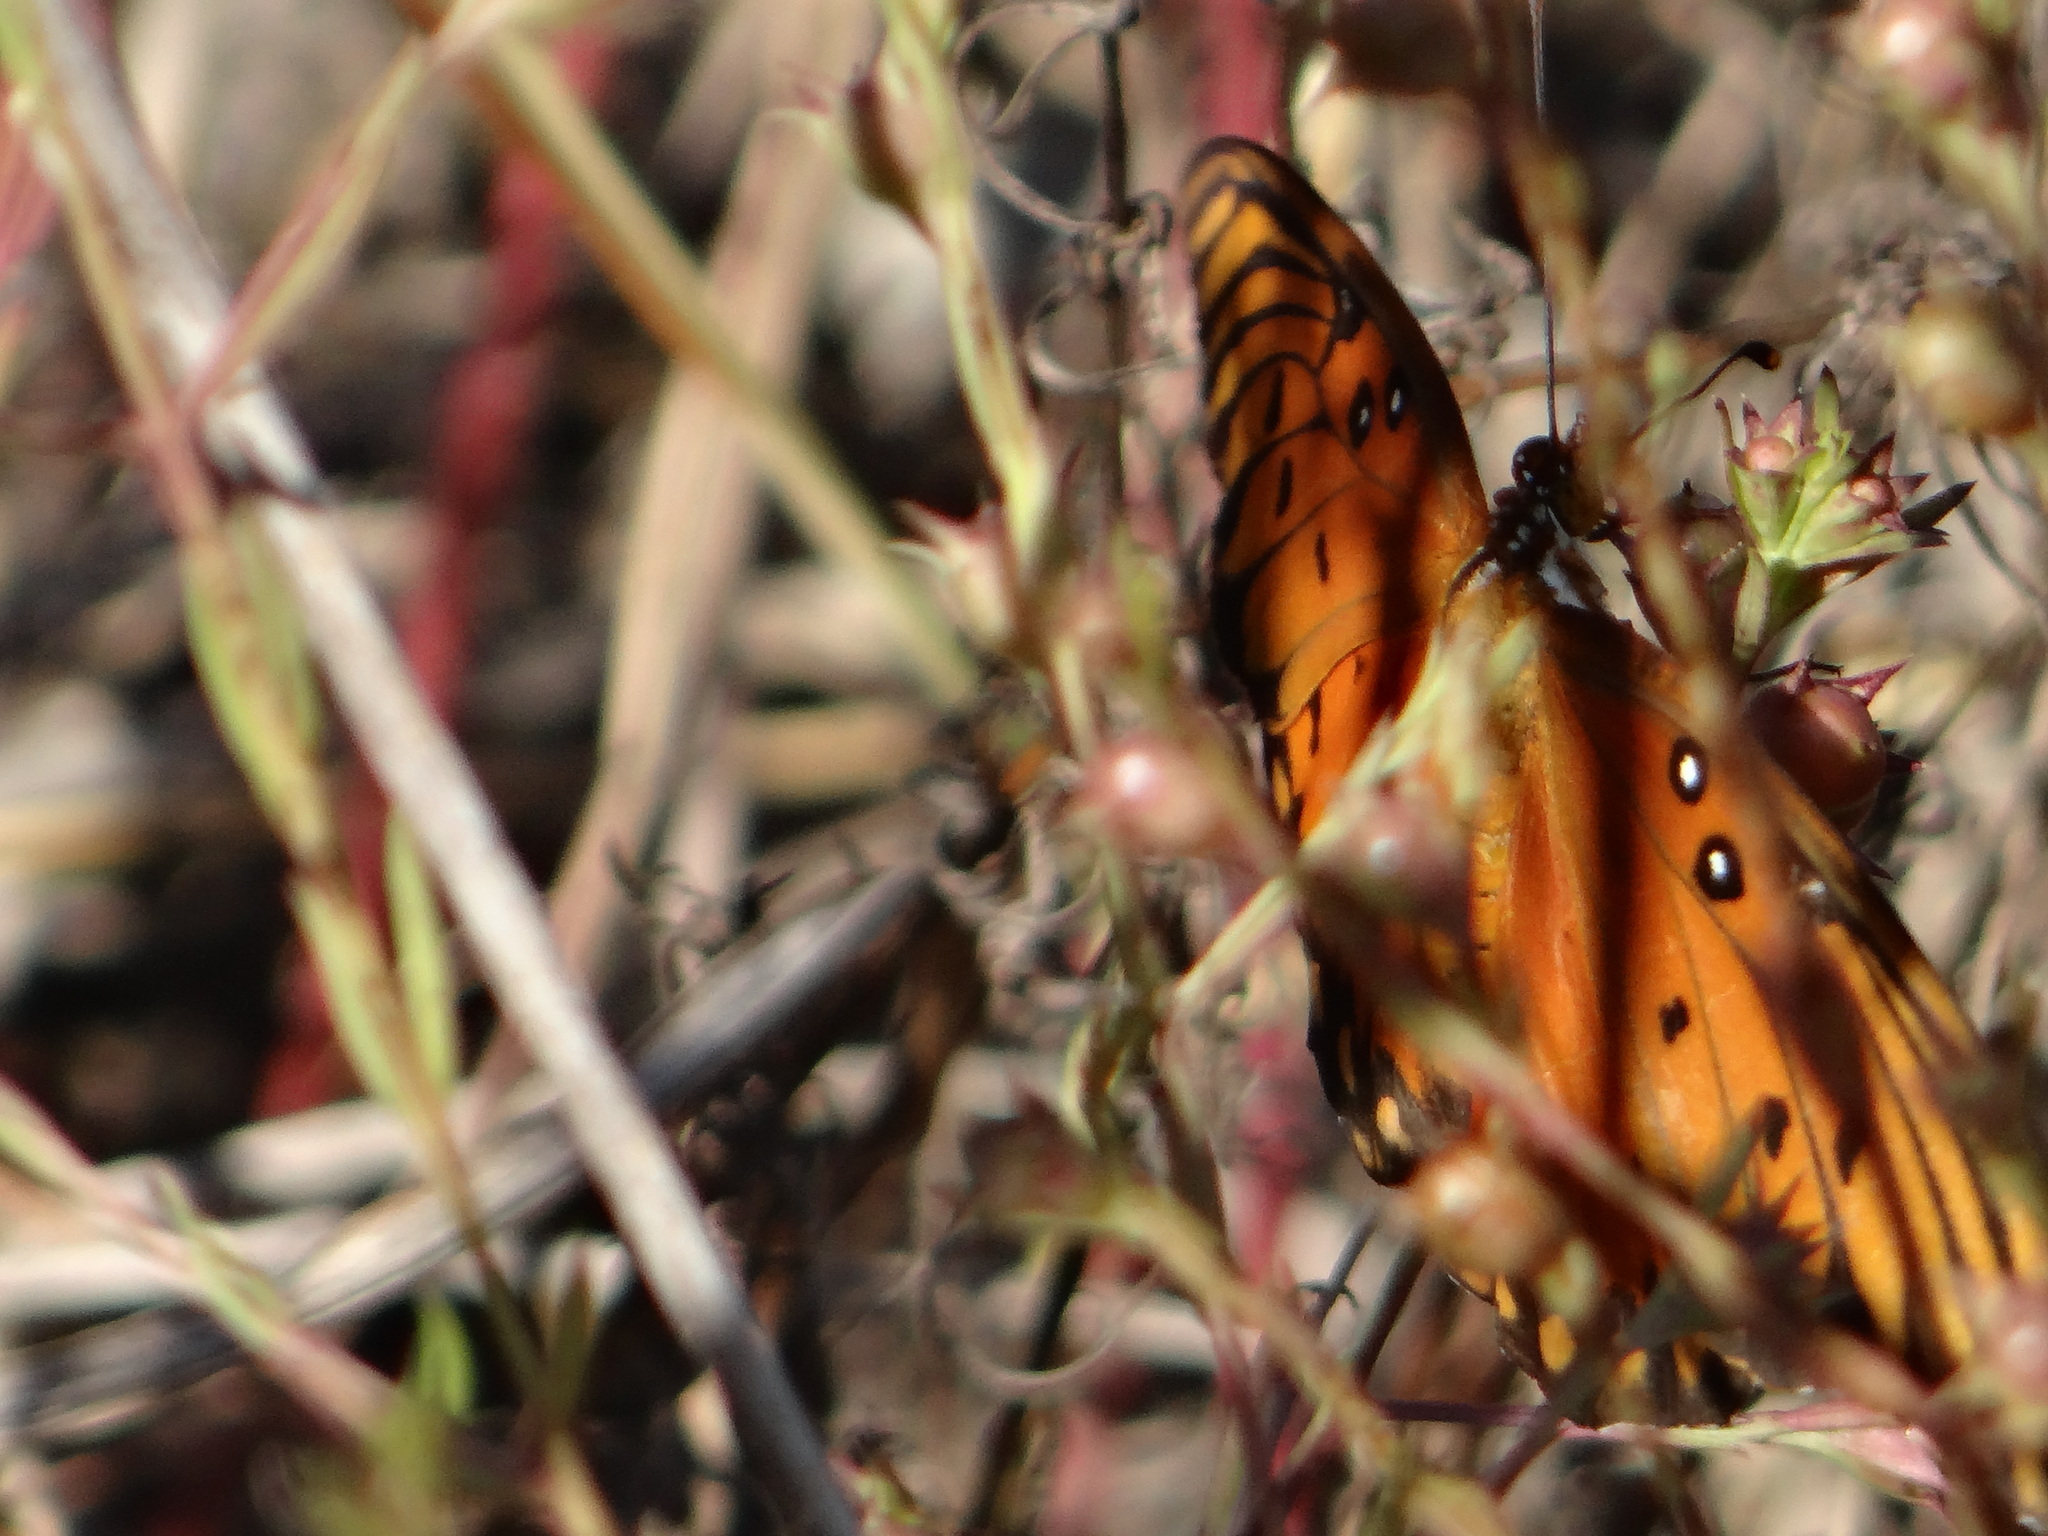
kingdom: Animalia
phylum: Arthropoda
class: Insecta
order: Lepidoptera
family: Nymphalidae
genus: Dione
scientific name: Dione vanillae
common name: Gulf fritillary
